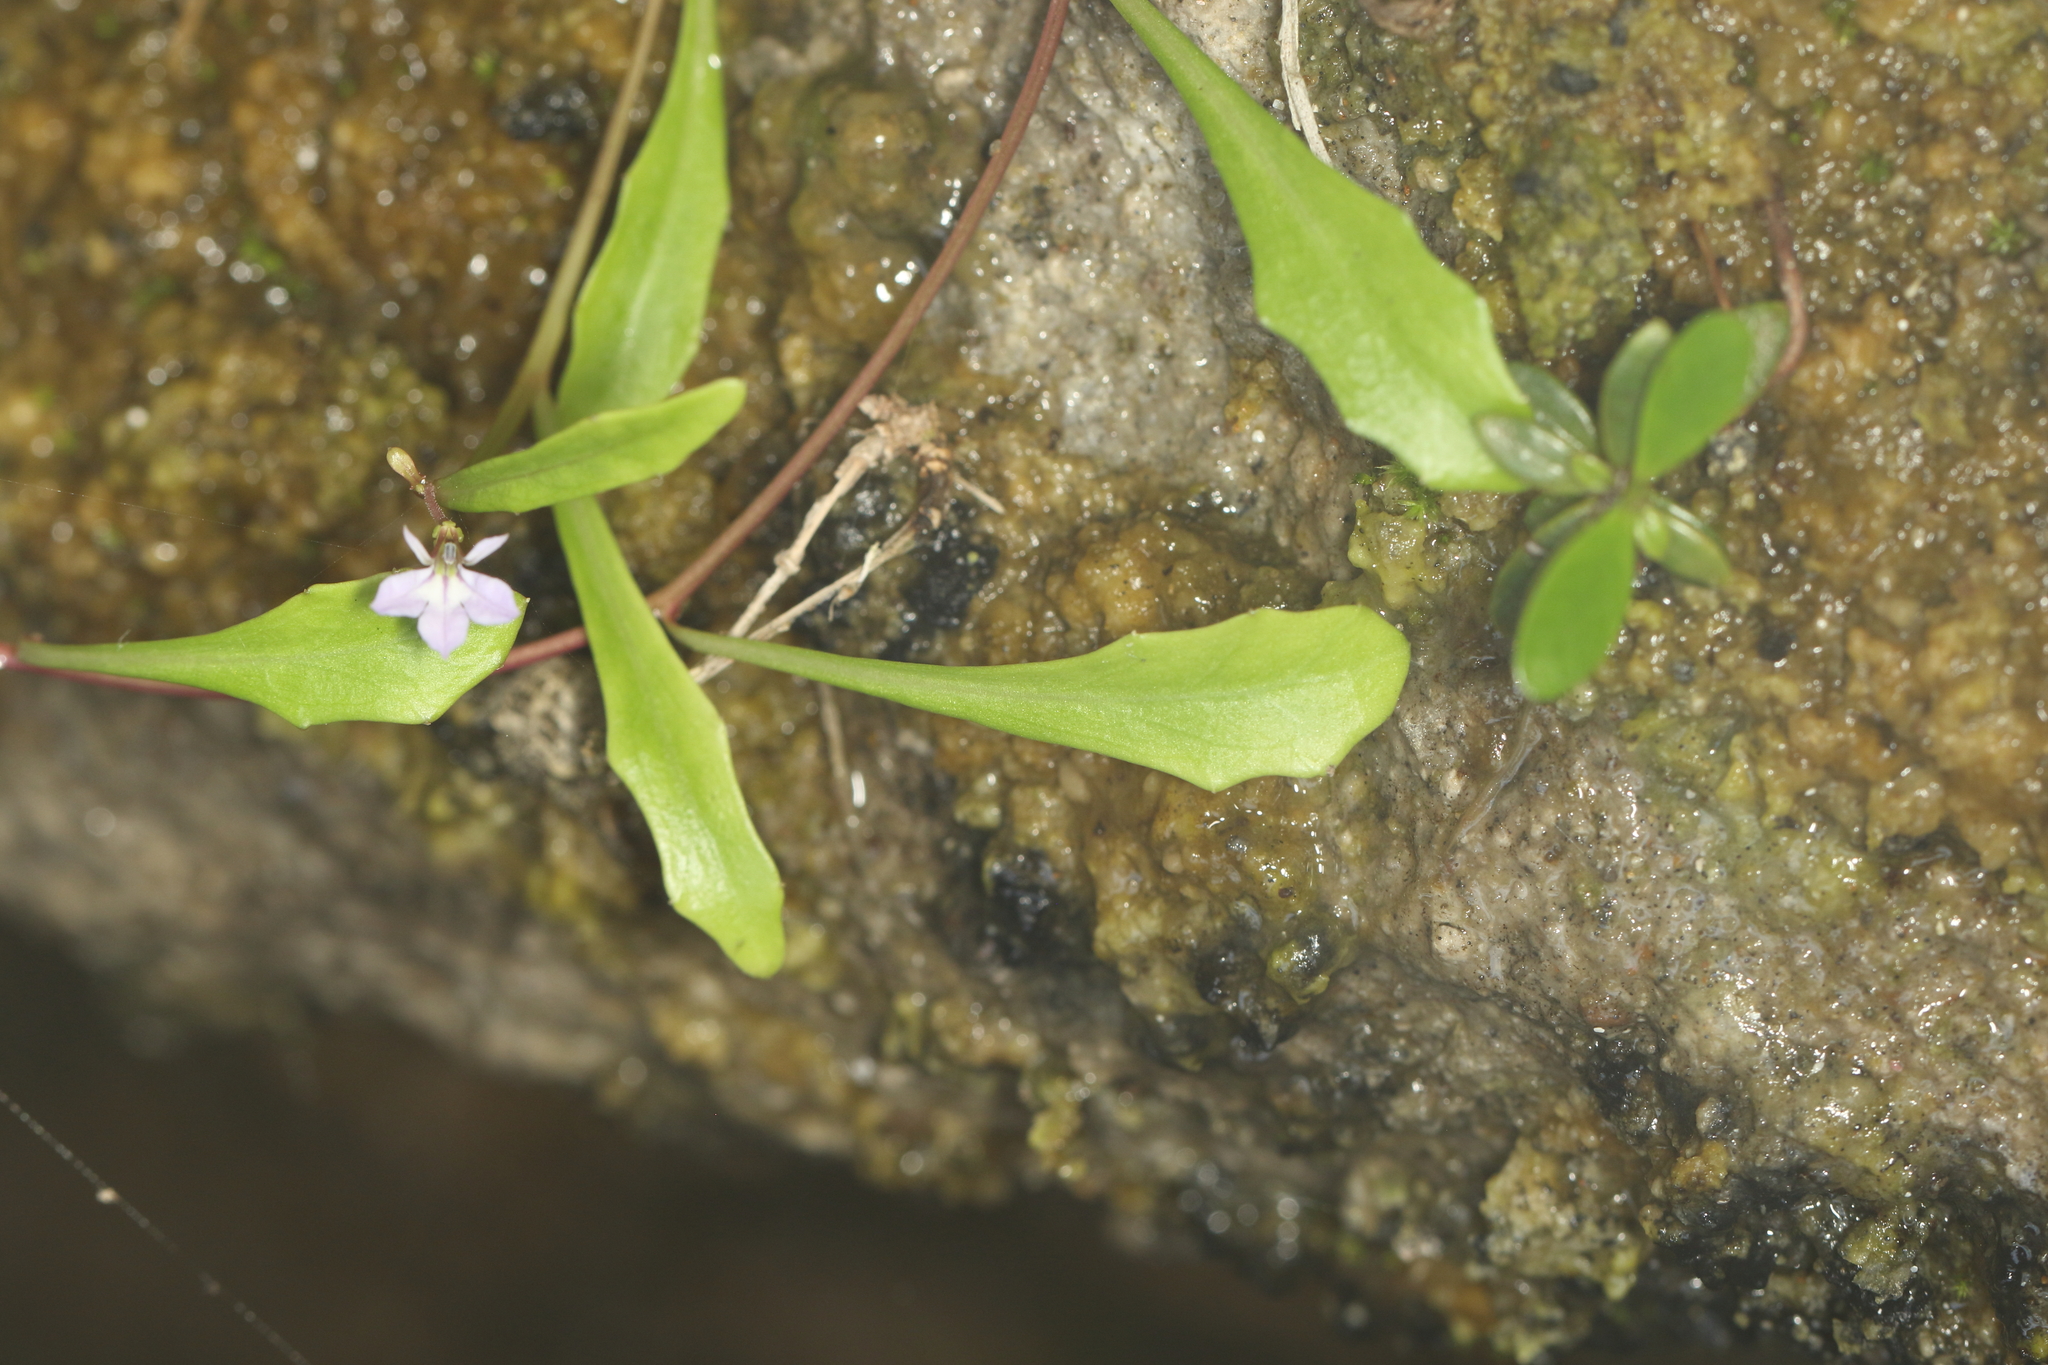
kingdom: Plantae
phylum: Tracheophyta
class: Magnoliopsida
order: Asterales
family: Campanulaceae
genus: Lobelia
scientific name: Lobelia anceps
